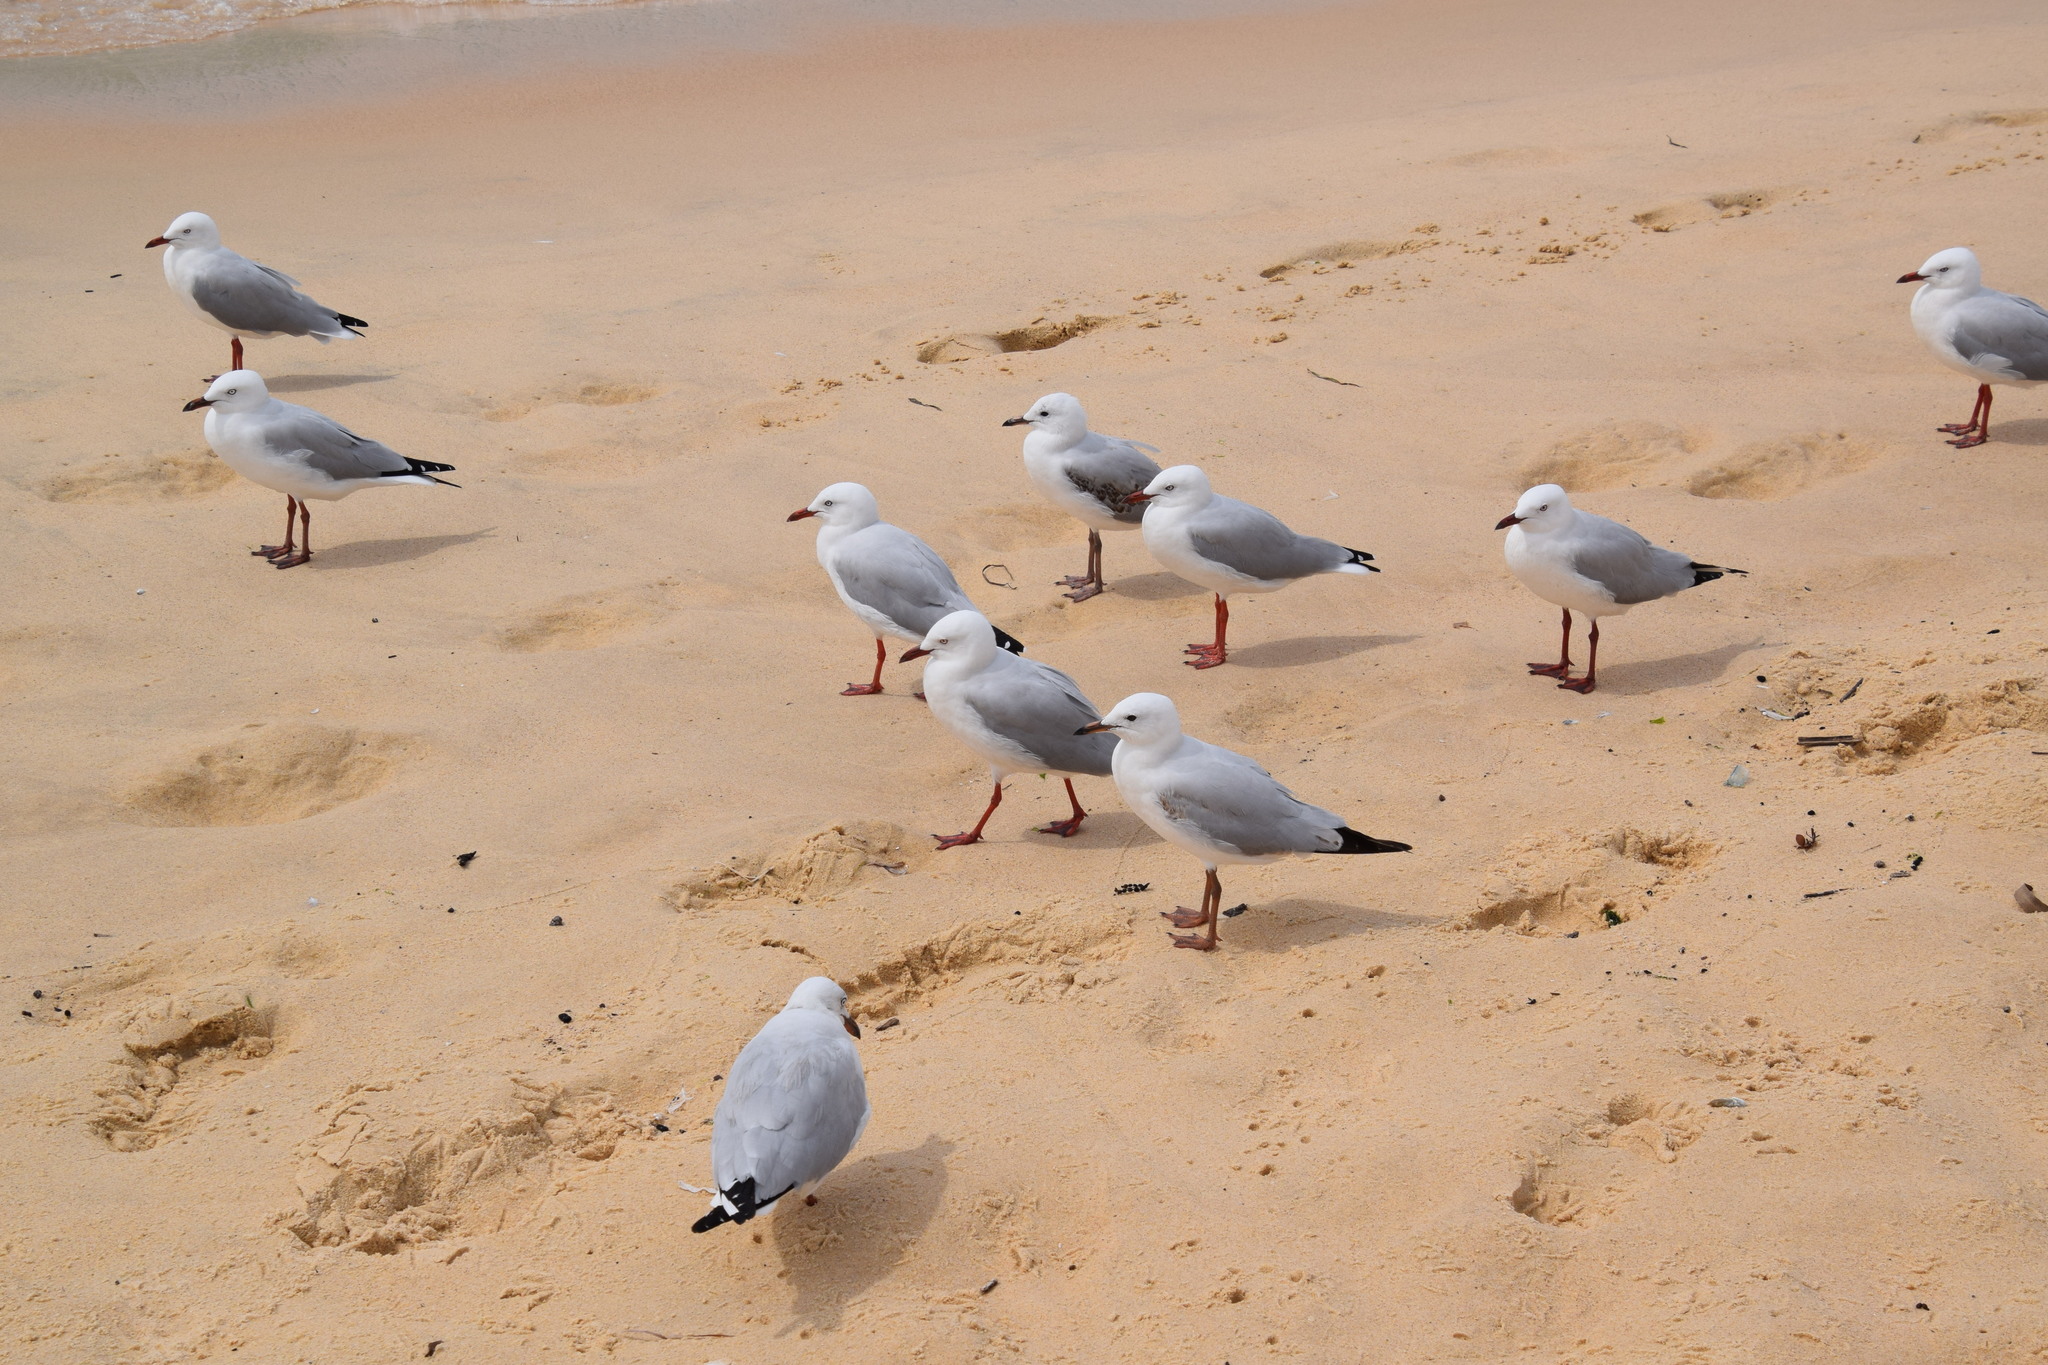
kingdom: Animalia
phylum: Chordata
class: Aves
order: Charadriiformes
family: Laridae
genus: Chroicocephalus
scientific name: Chroicocephalus novaehollandiae
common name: Silver gull
